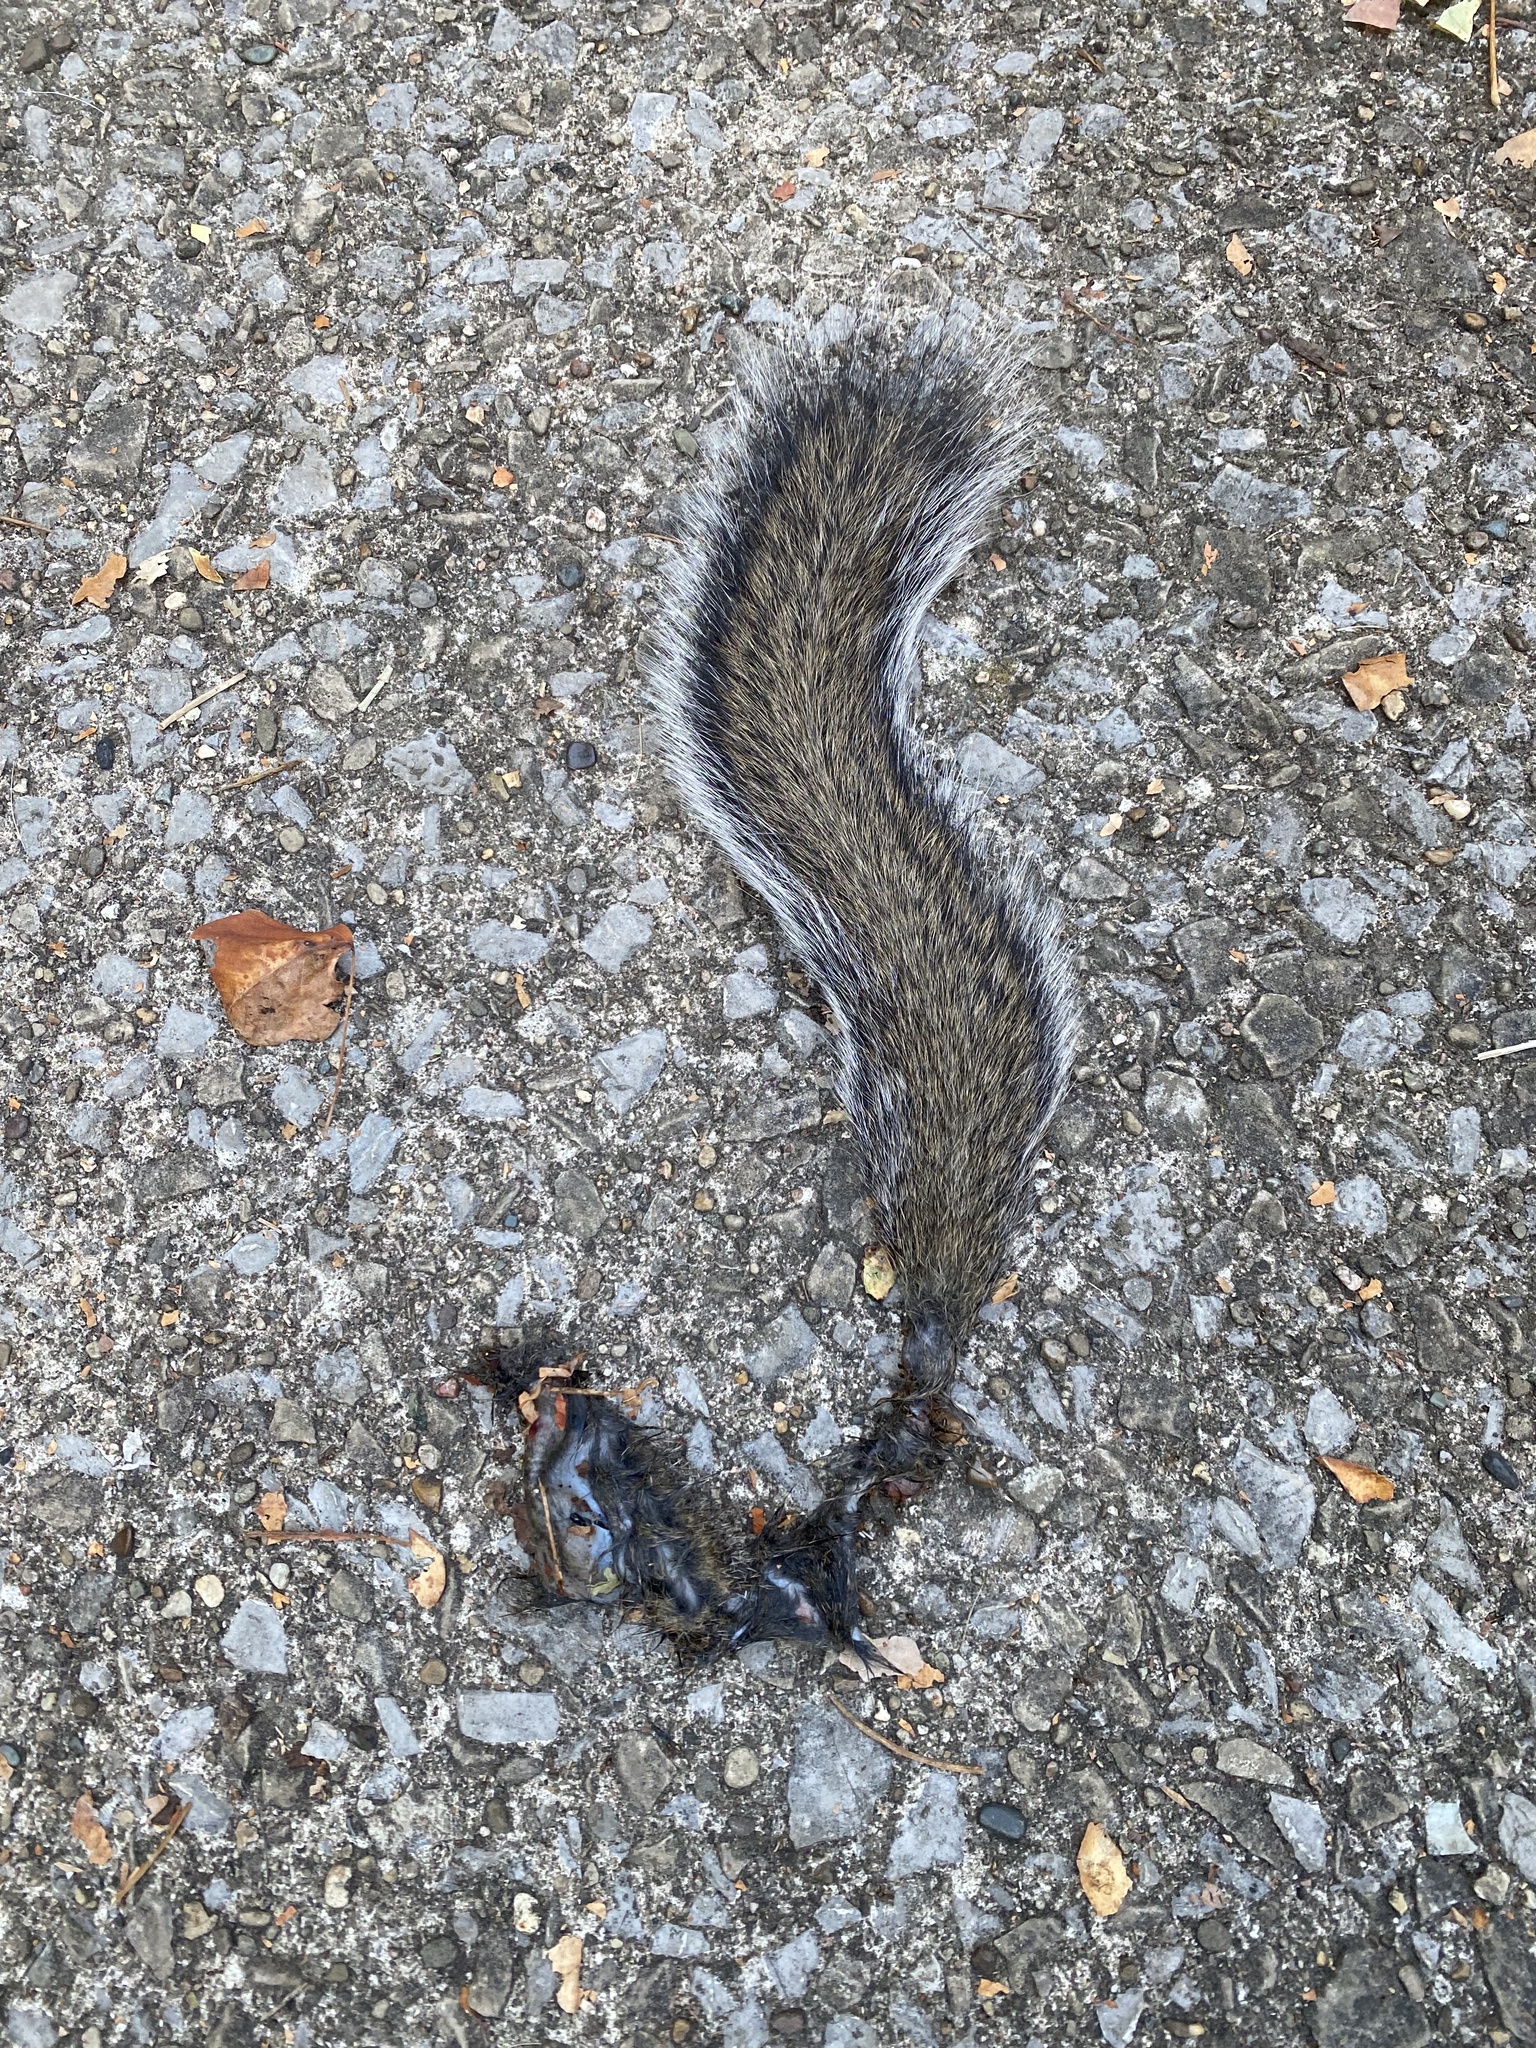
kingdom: Animalia
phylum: Chordata
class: Mammalia
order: Rodentia
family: Sciuridae
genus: Sciurus
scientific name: Sciurus carolinensis
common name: Eastern gray squirrel
